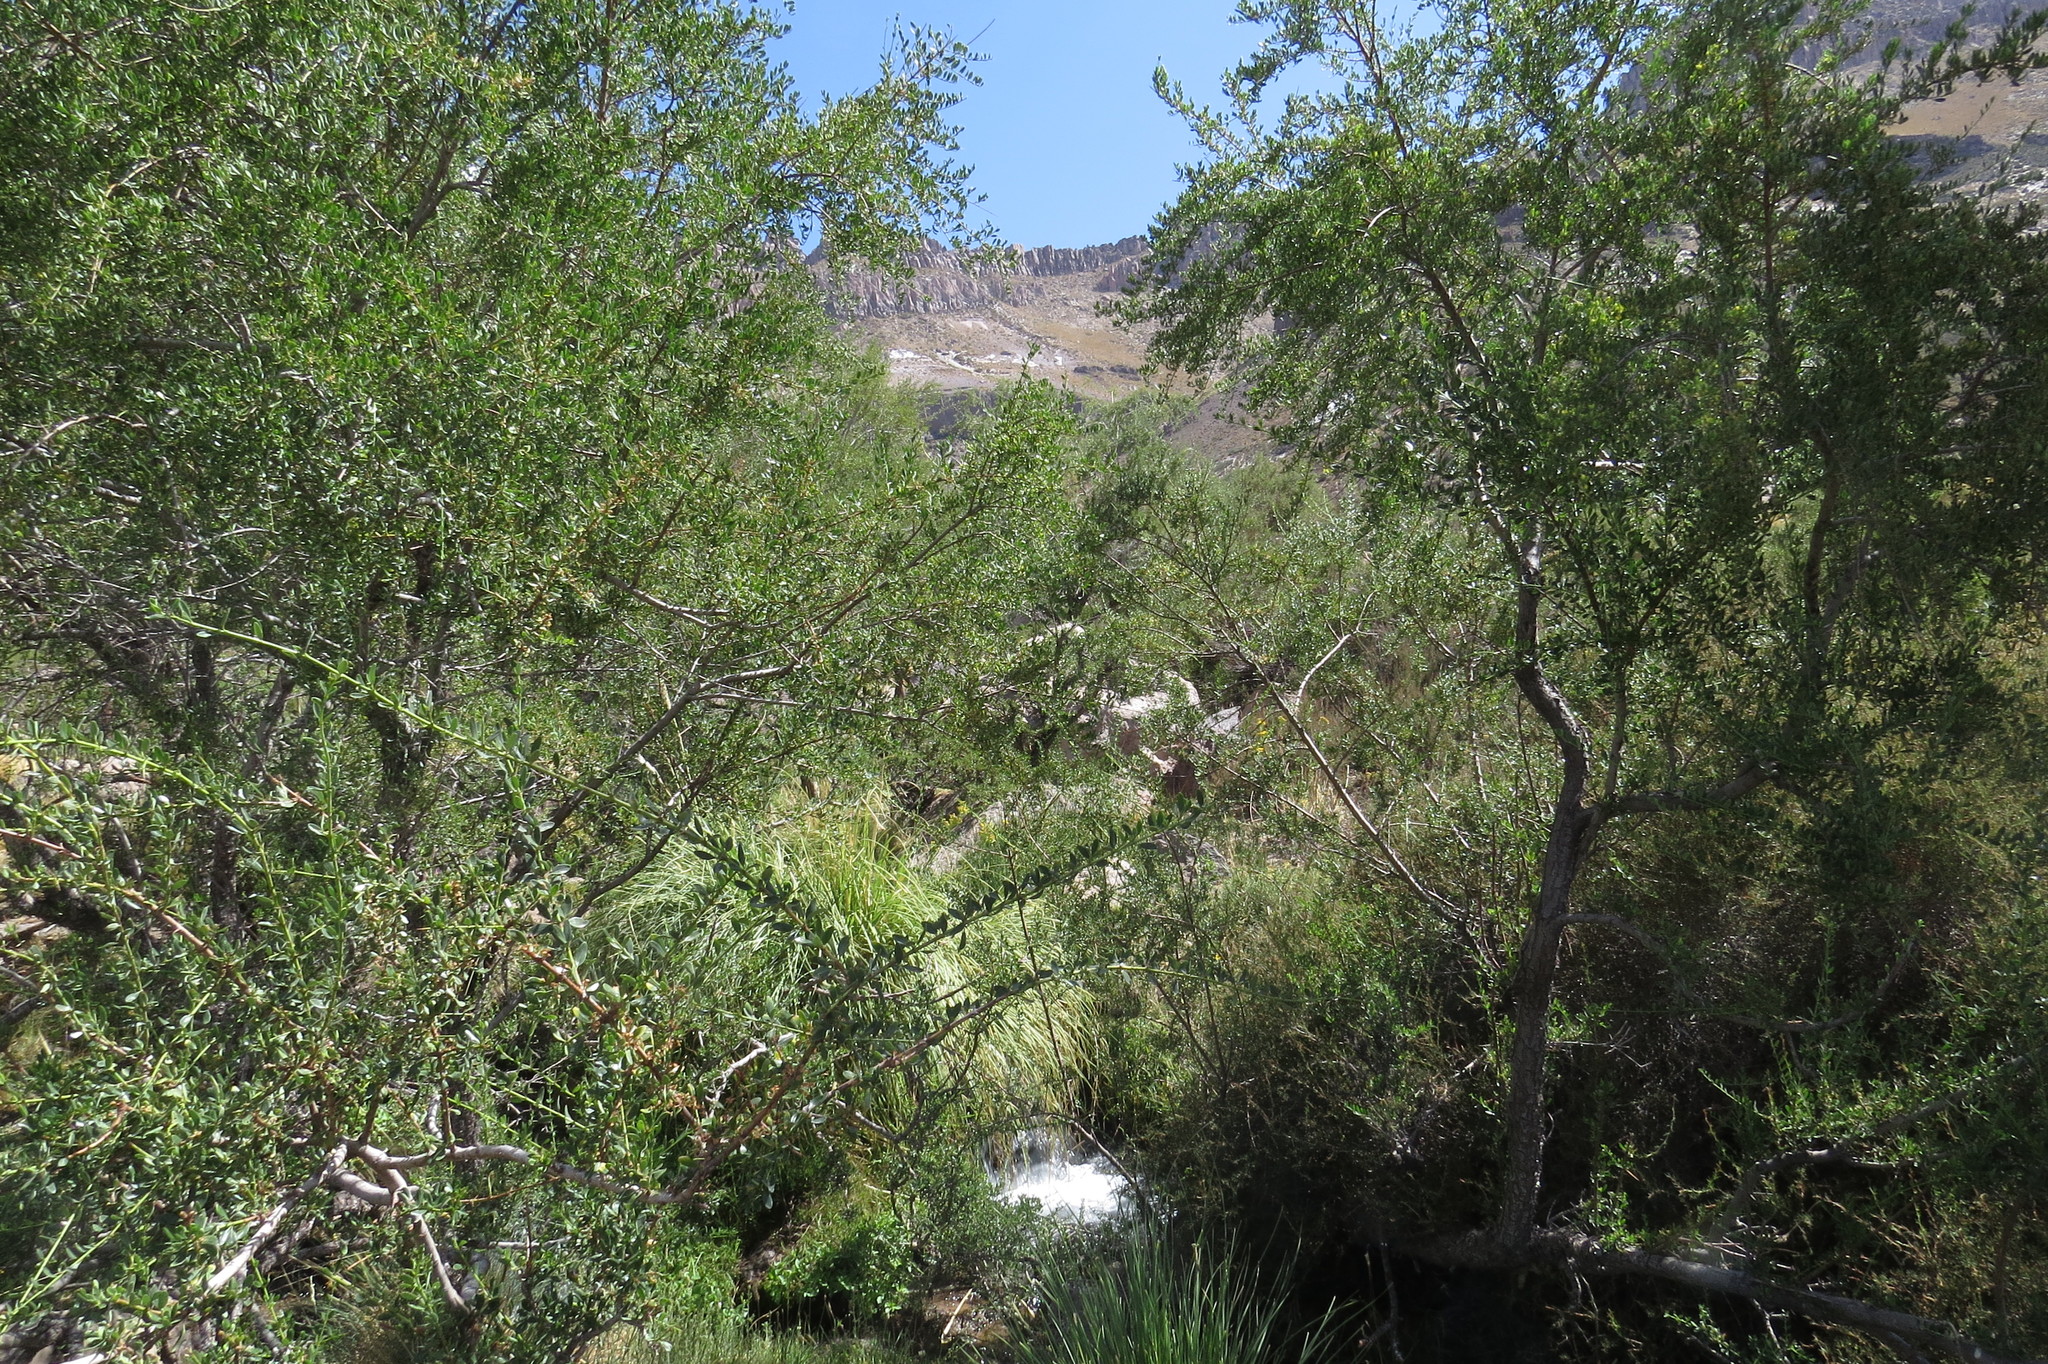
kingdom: Plantae
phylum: Tracheophyta
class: Magnoliopsida
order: Rosales
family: Rhamnaceae
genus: Ochetophila
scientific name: Ochetophila trinervis
